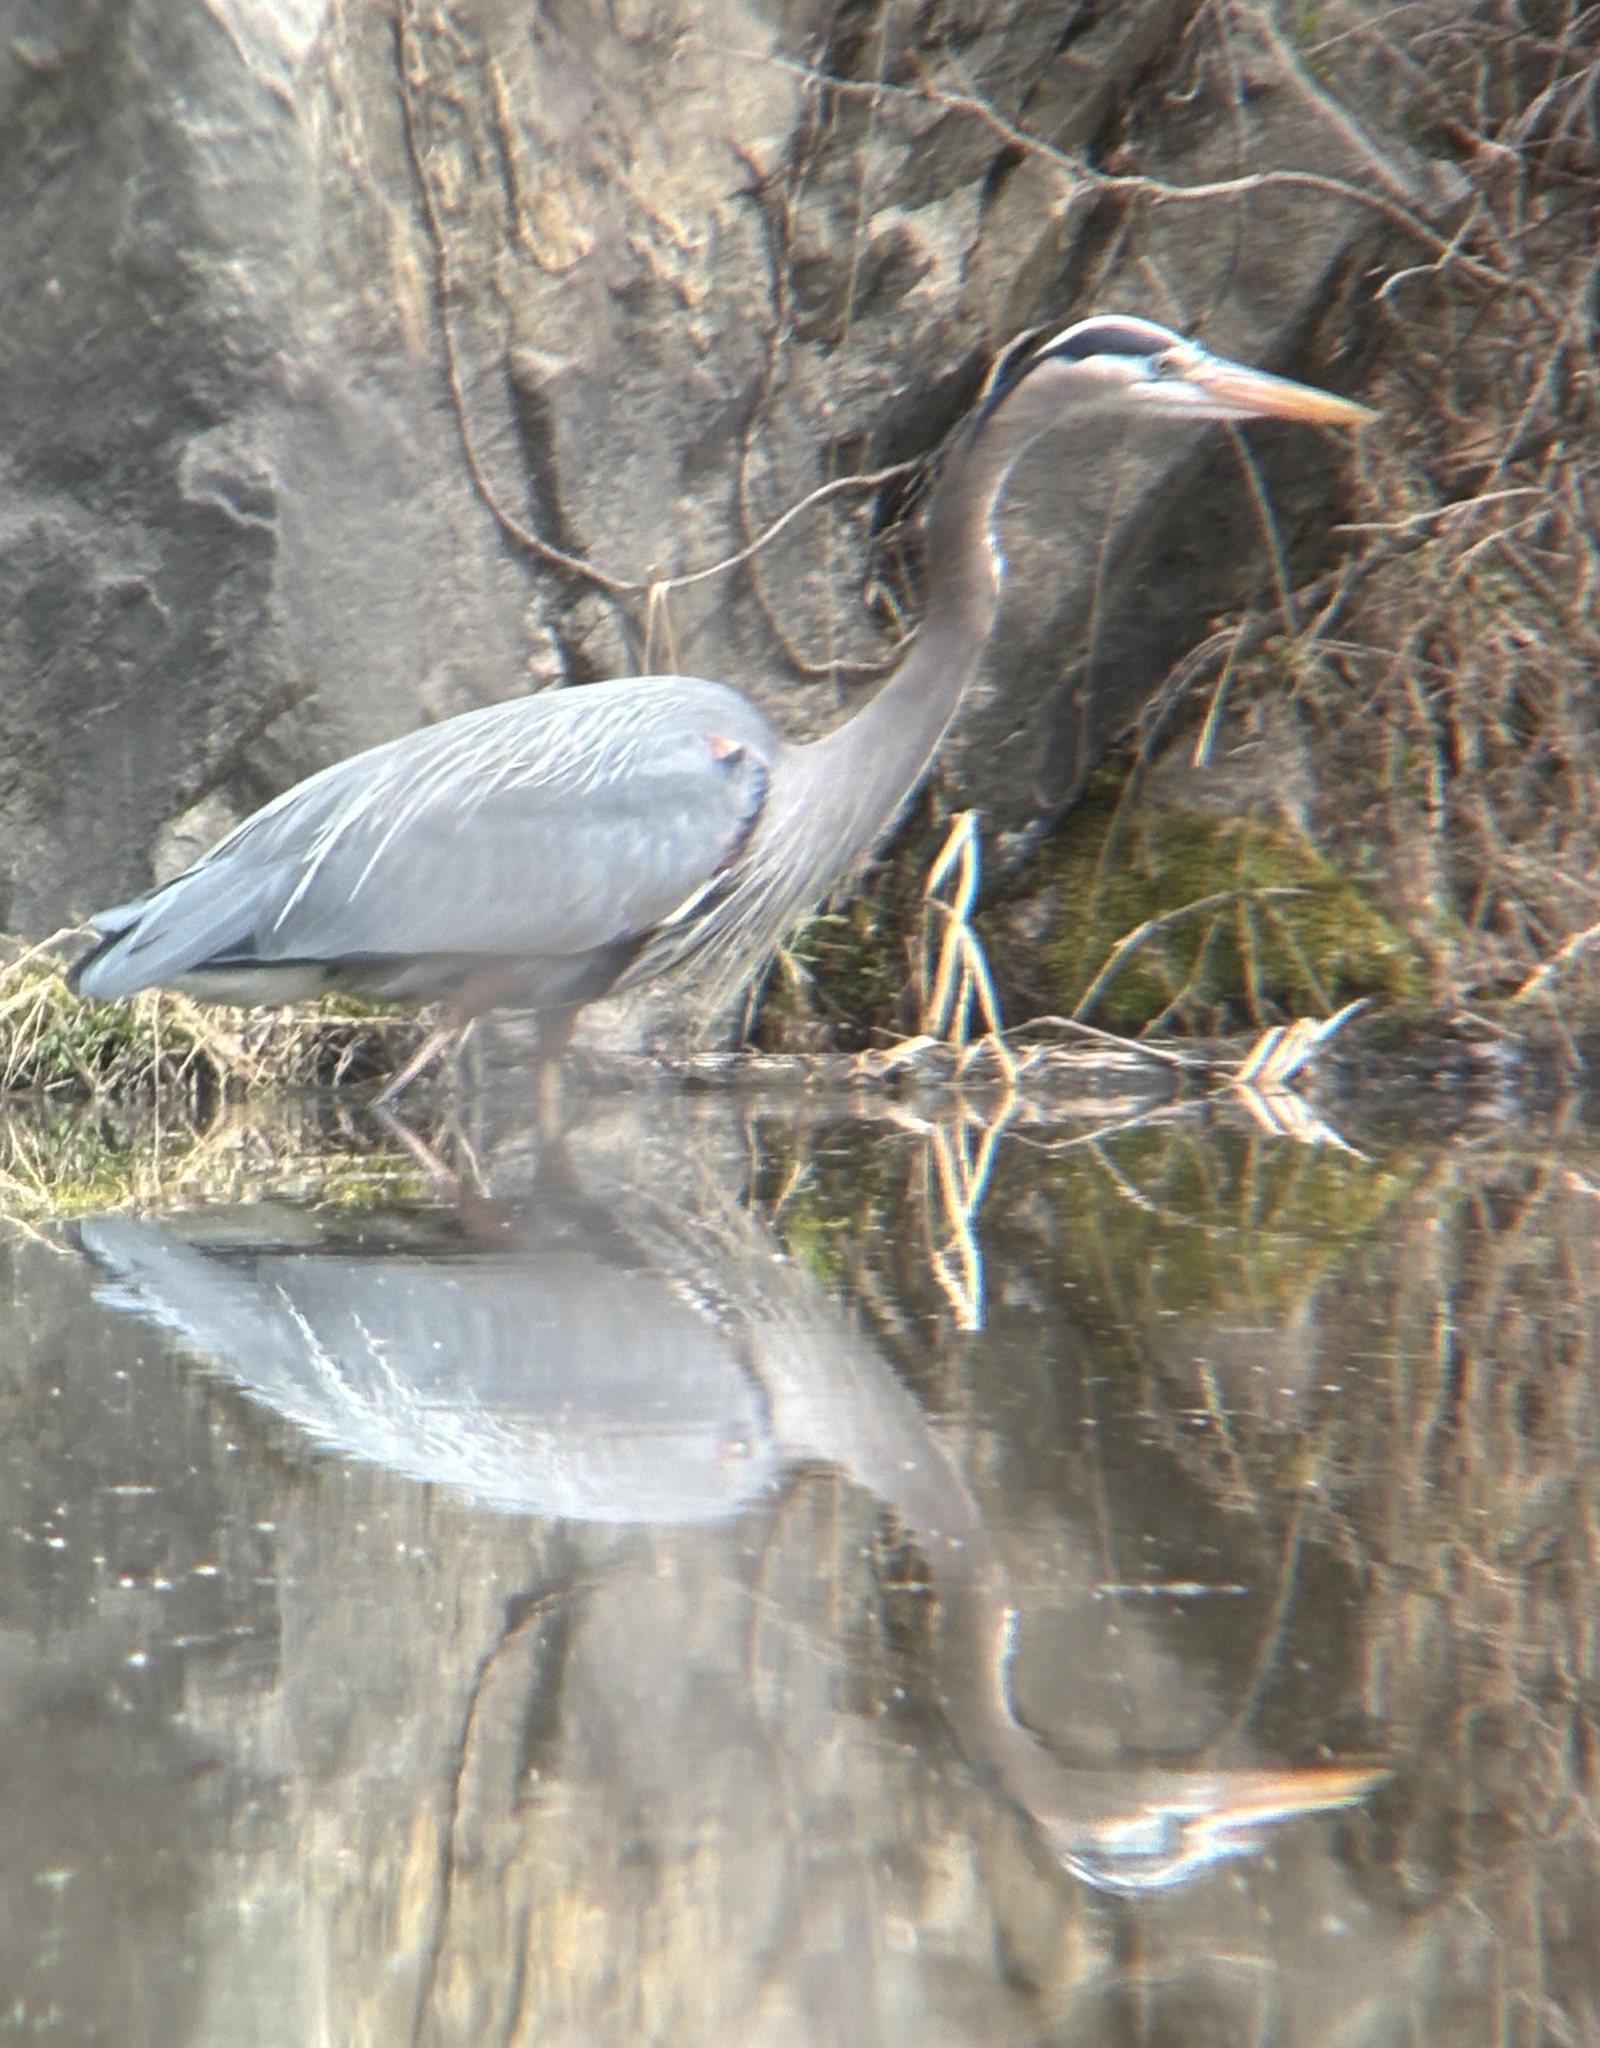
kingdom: Animalia
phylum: Chordata
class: Aves
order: Pelecaniformes
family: Ardeidae
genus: Ardea
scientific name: Ardea herodias
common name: Great blue heron
